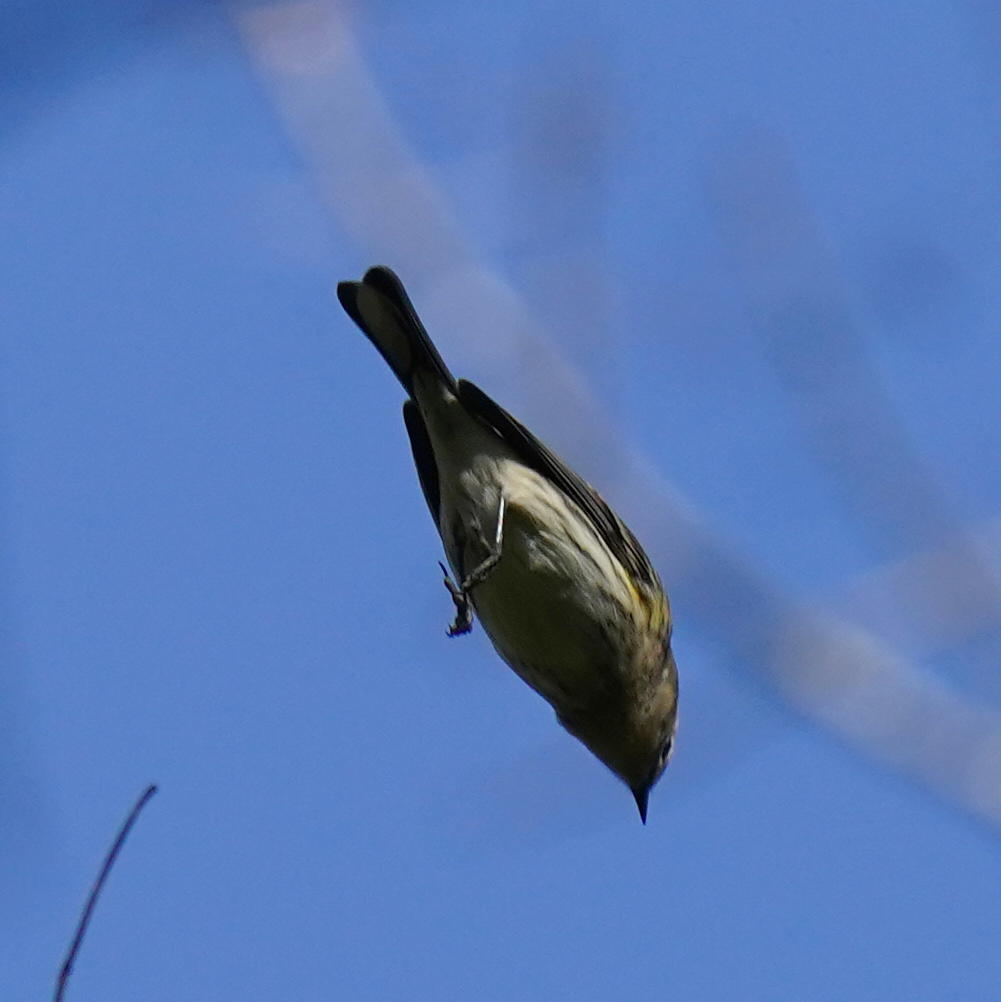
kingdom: Animalia
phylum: Chordata
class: Aves
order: Passeriformes
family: Parulidae
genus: Setophaga
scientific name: Setophaga coronata
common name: Myrtle warbler
